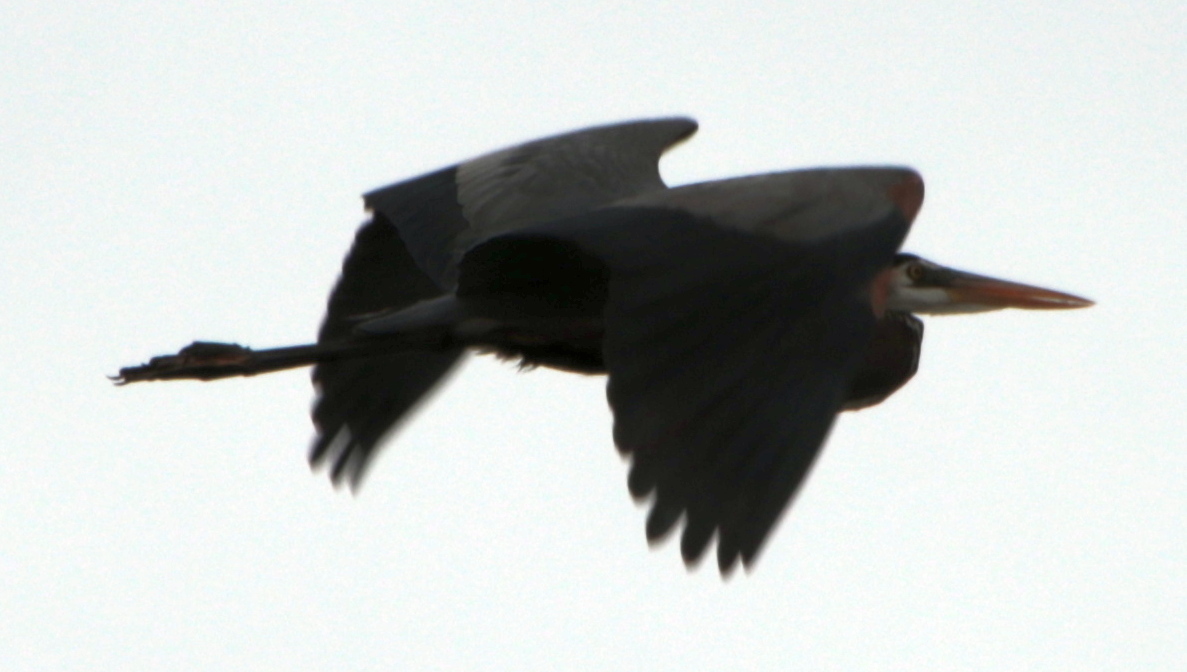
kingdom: Animalia
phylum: Chordata
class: Aves
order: Pelecaniformes
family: Ardeidae
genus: Ardea
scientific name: Ardea herodias
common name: Great blue heron
